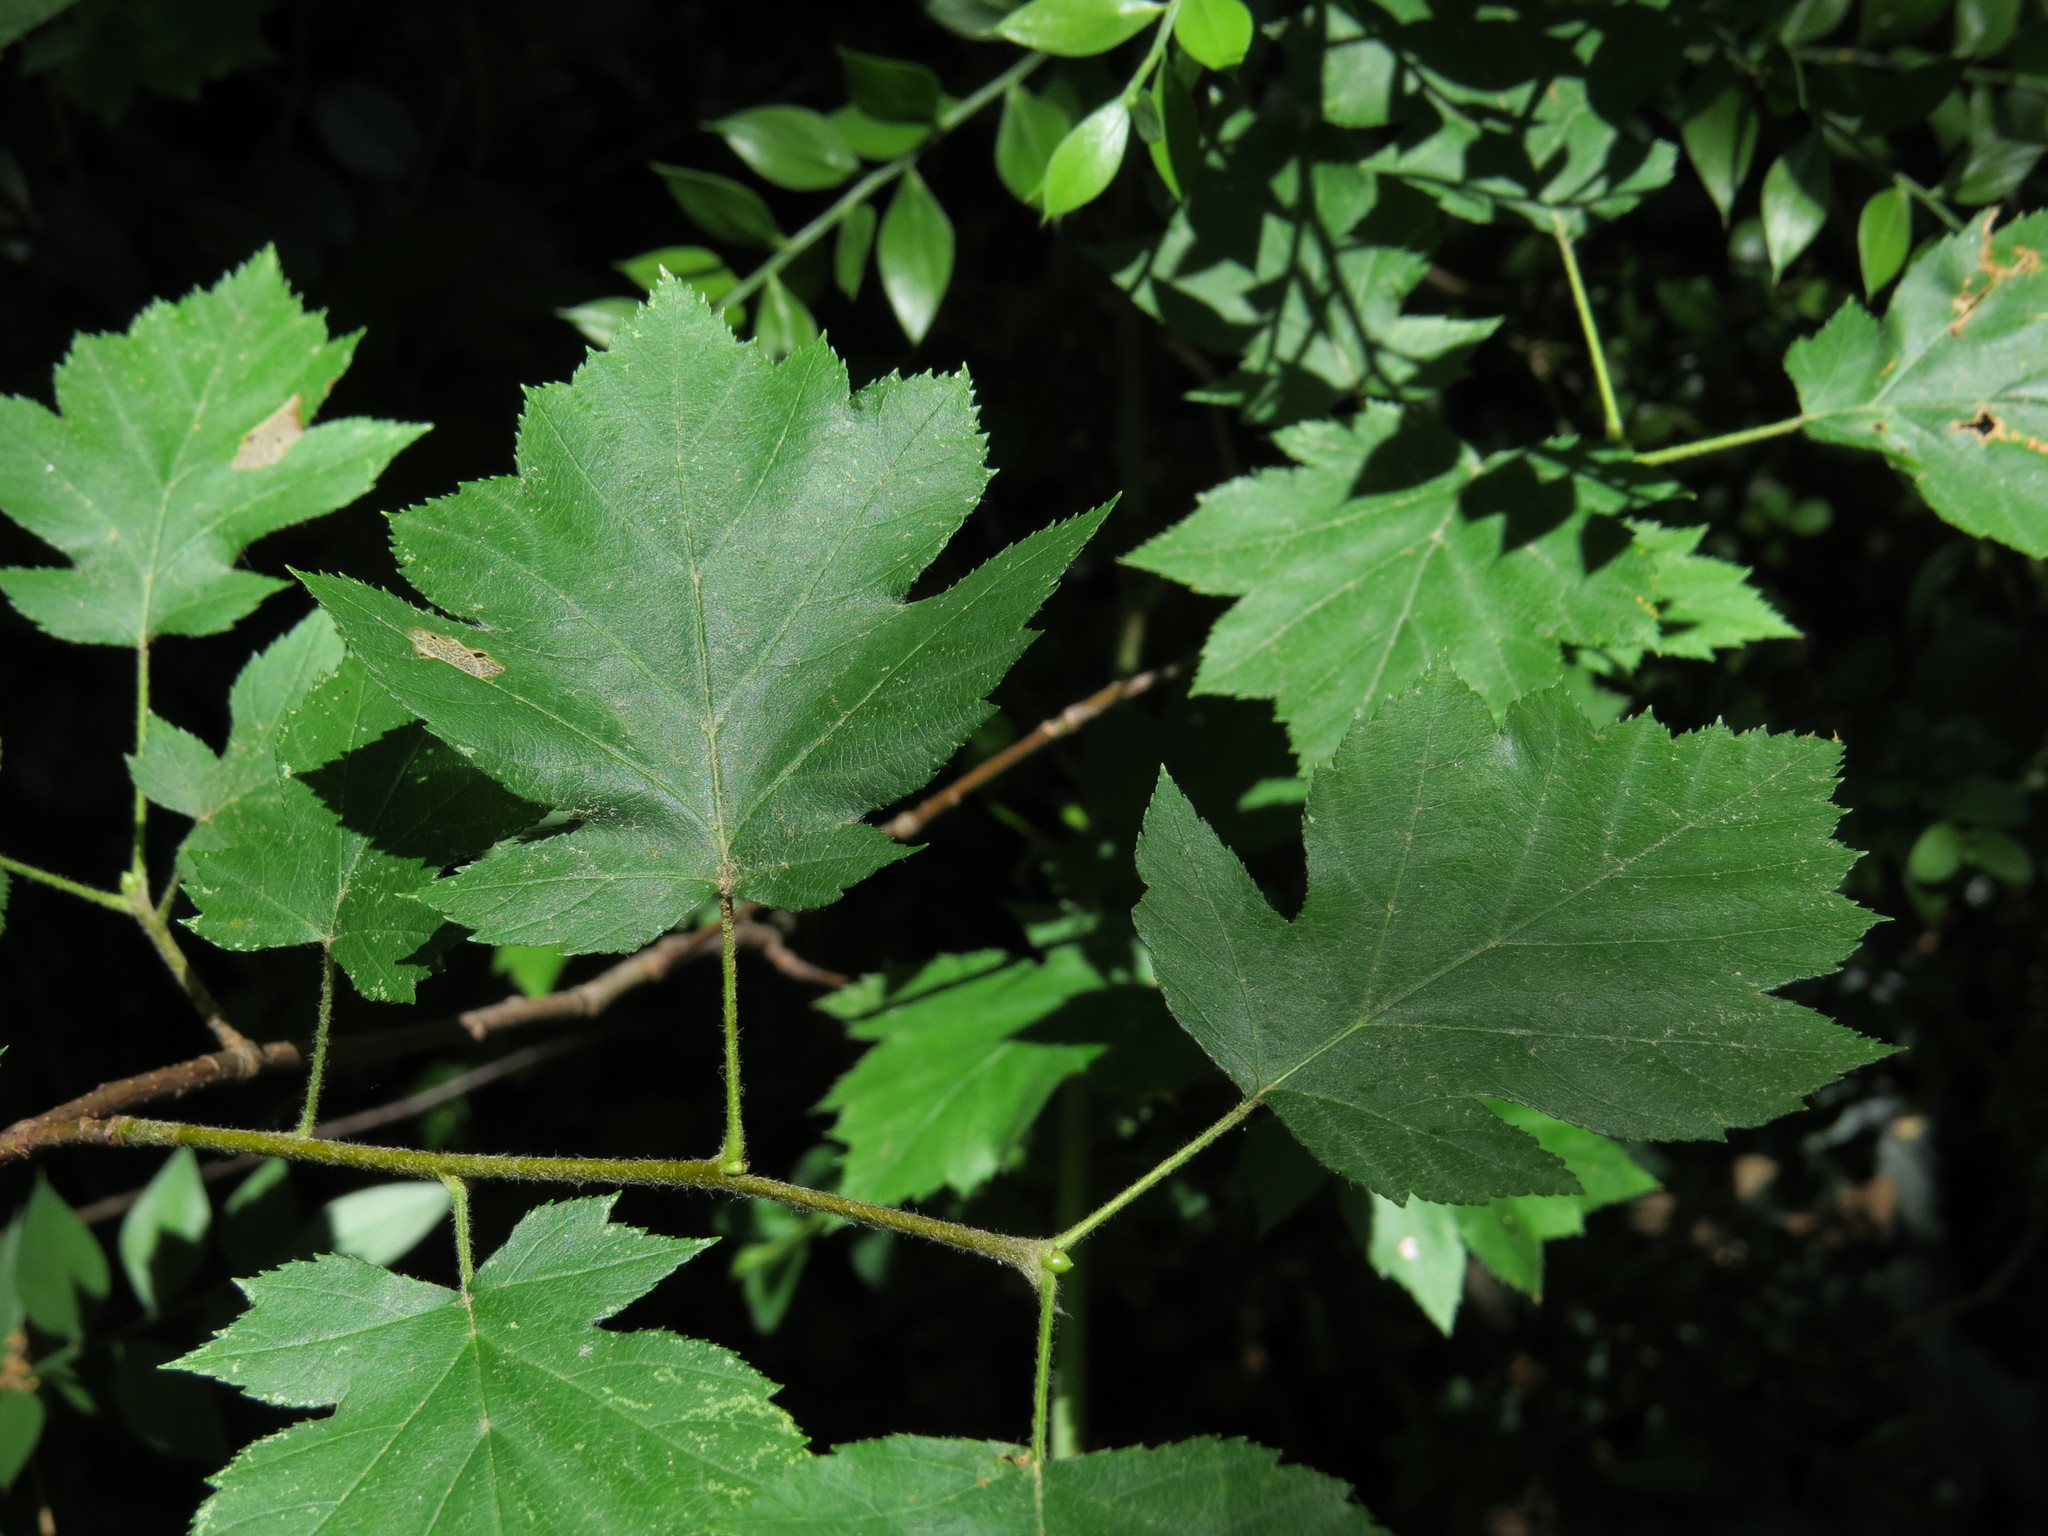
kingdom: Plantae
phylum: Tracheophyta
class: Magnoliopsida
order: Rosales
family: Rosaceae
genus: Torminalis
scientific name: Torminalis glaberrima
